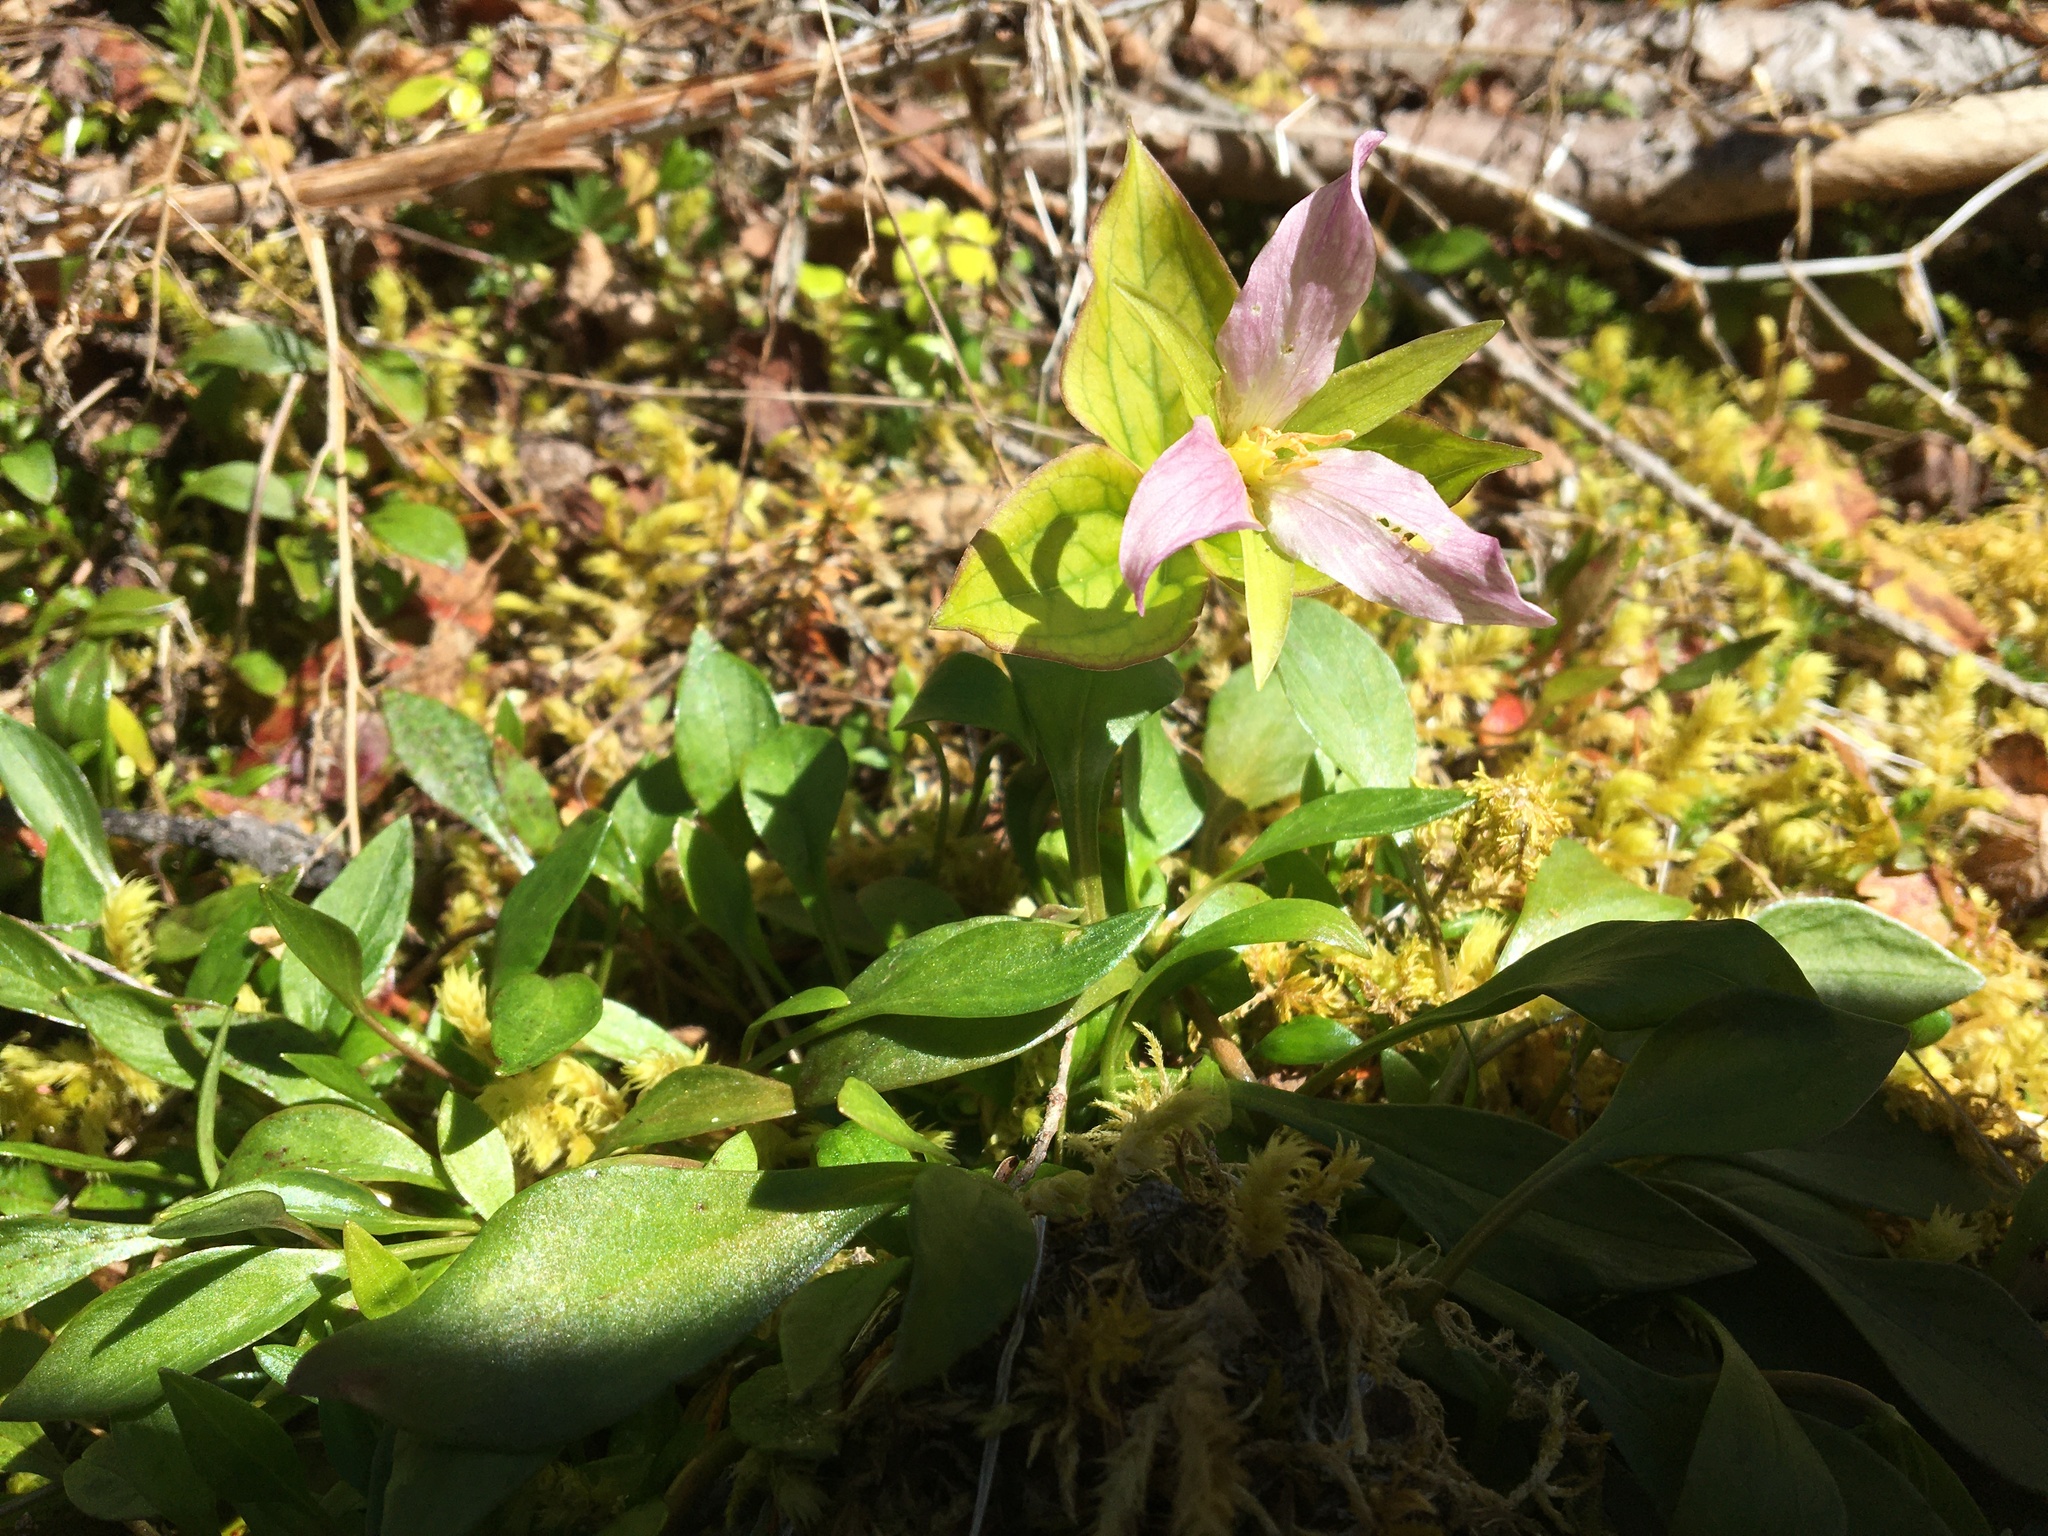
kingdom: Plantae
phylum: Tracheophyta
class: Liliopsida
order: Liliales
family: Melanthiaceae
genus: Trillium
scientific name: Trillium ovatum
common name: Pacific trillium
